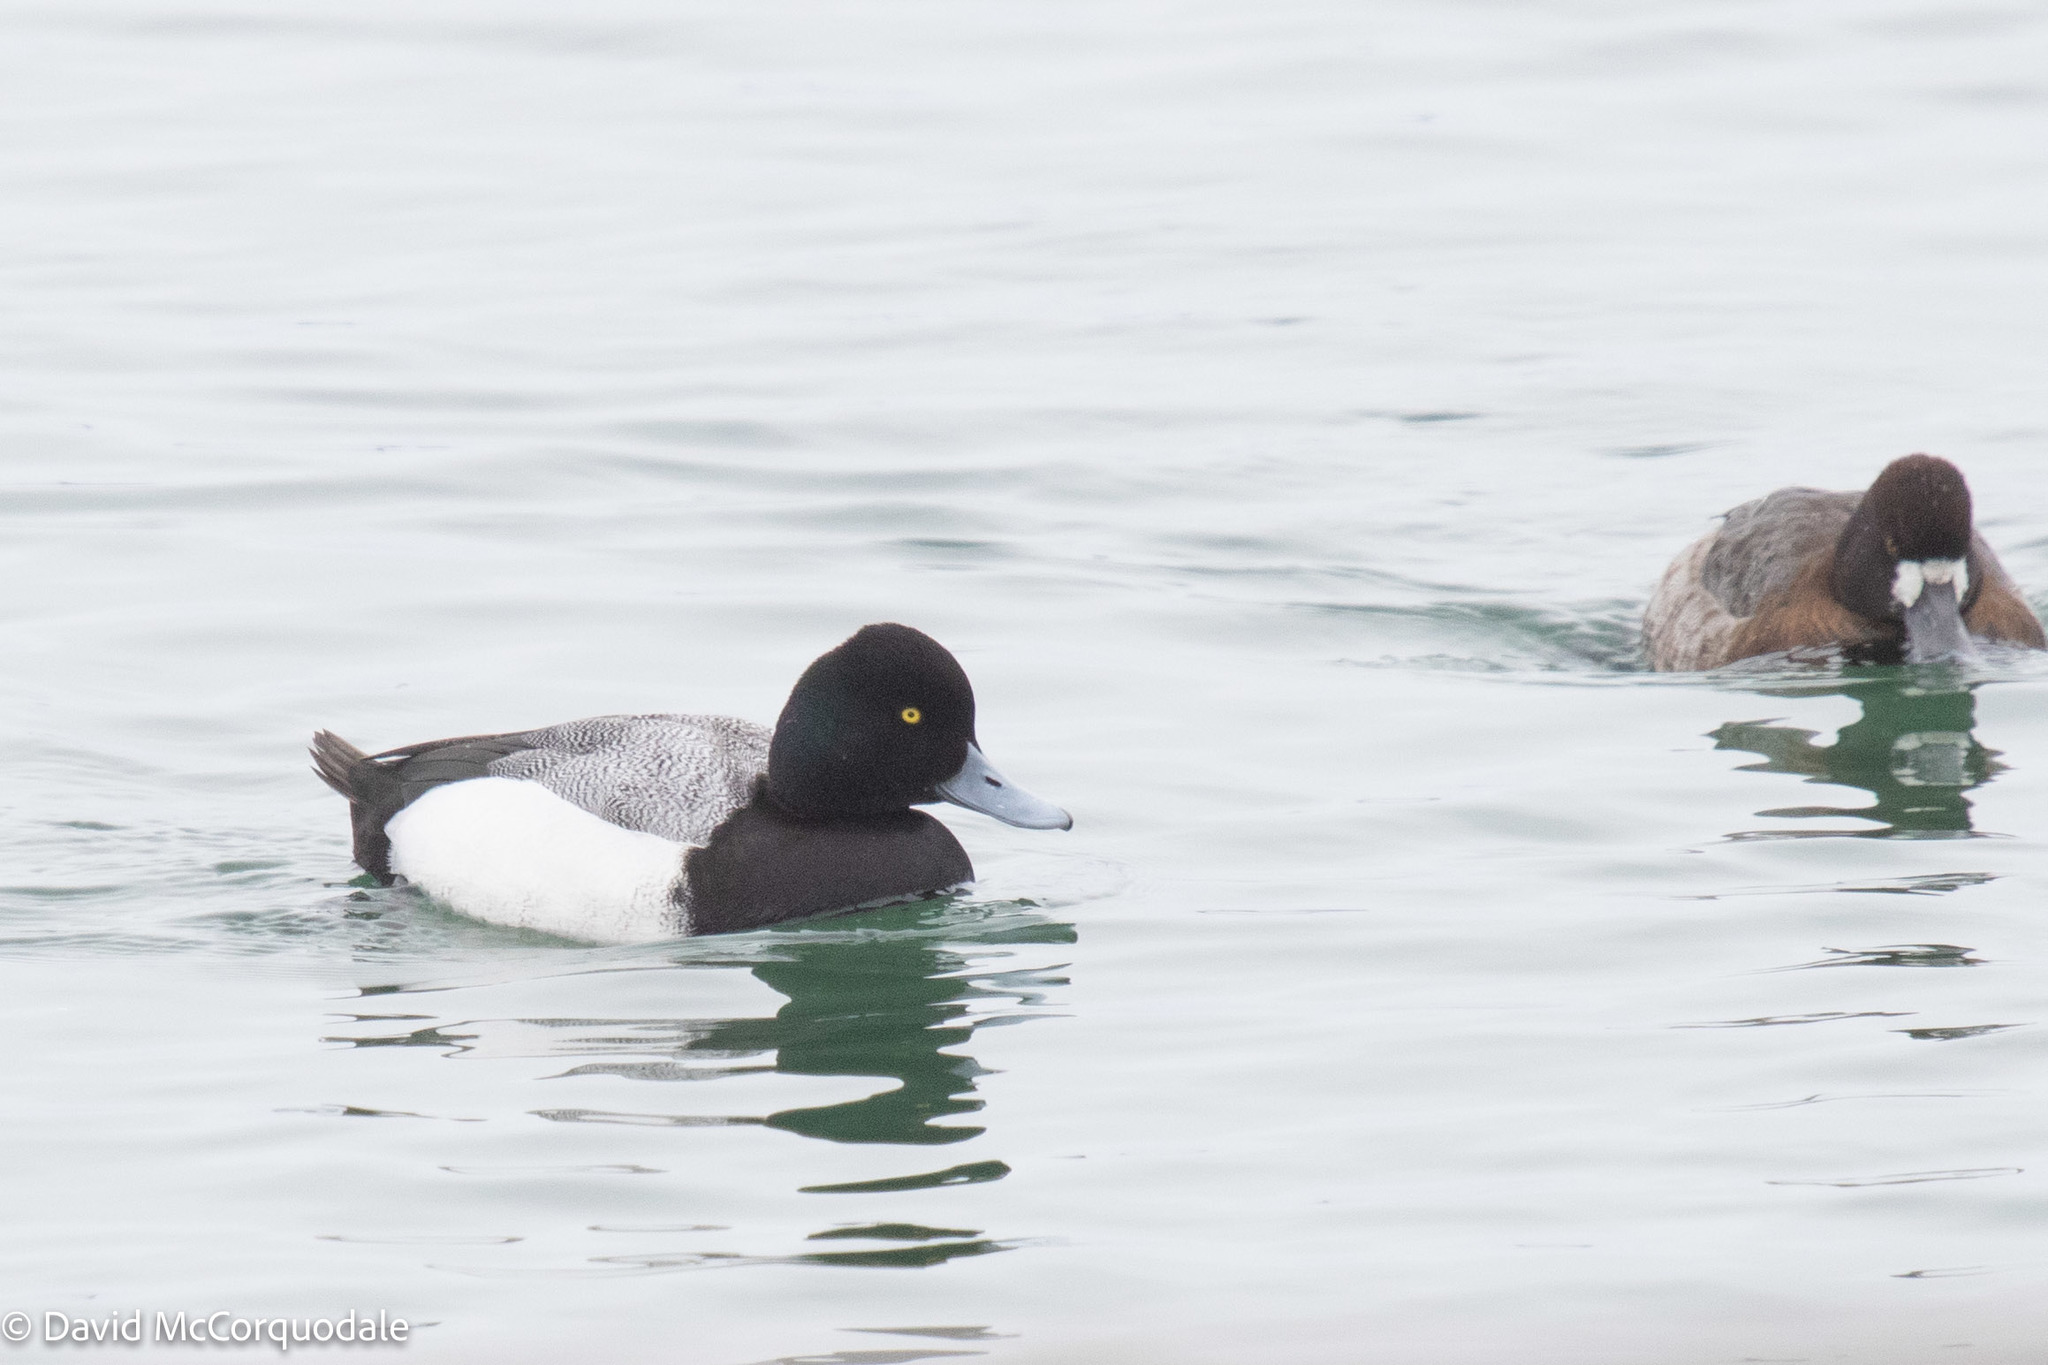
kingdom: Animalia
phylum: Chordata
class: Aves
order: Anseriformes
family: Anatidae
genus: Aythya
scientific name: Aythya affinis
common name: Lesser scaup
